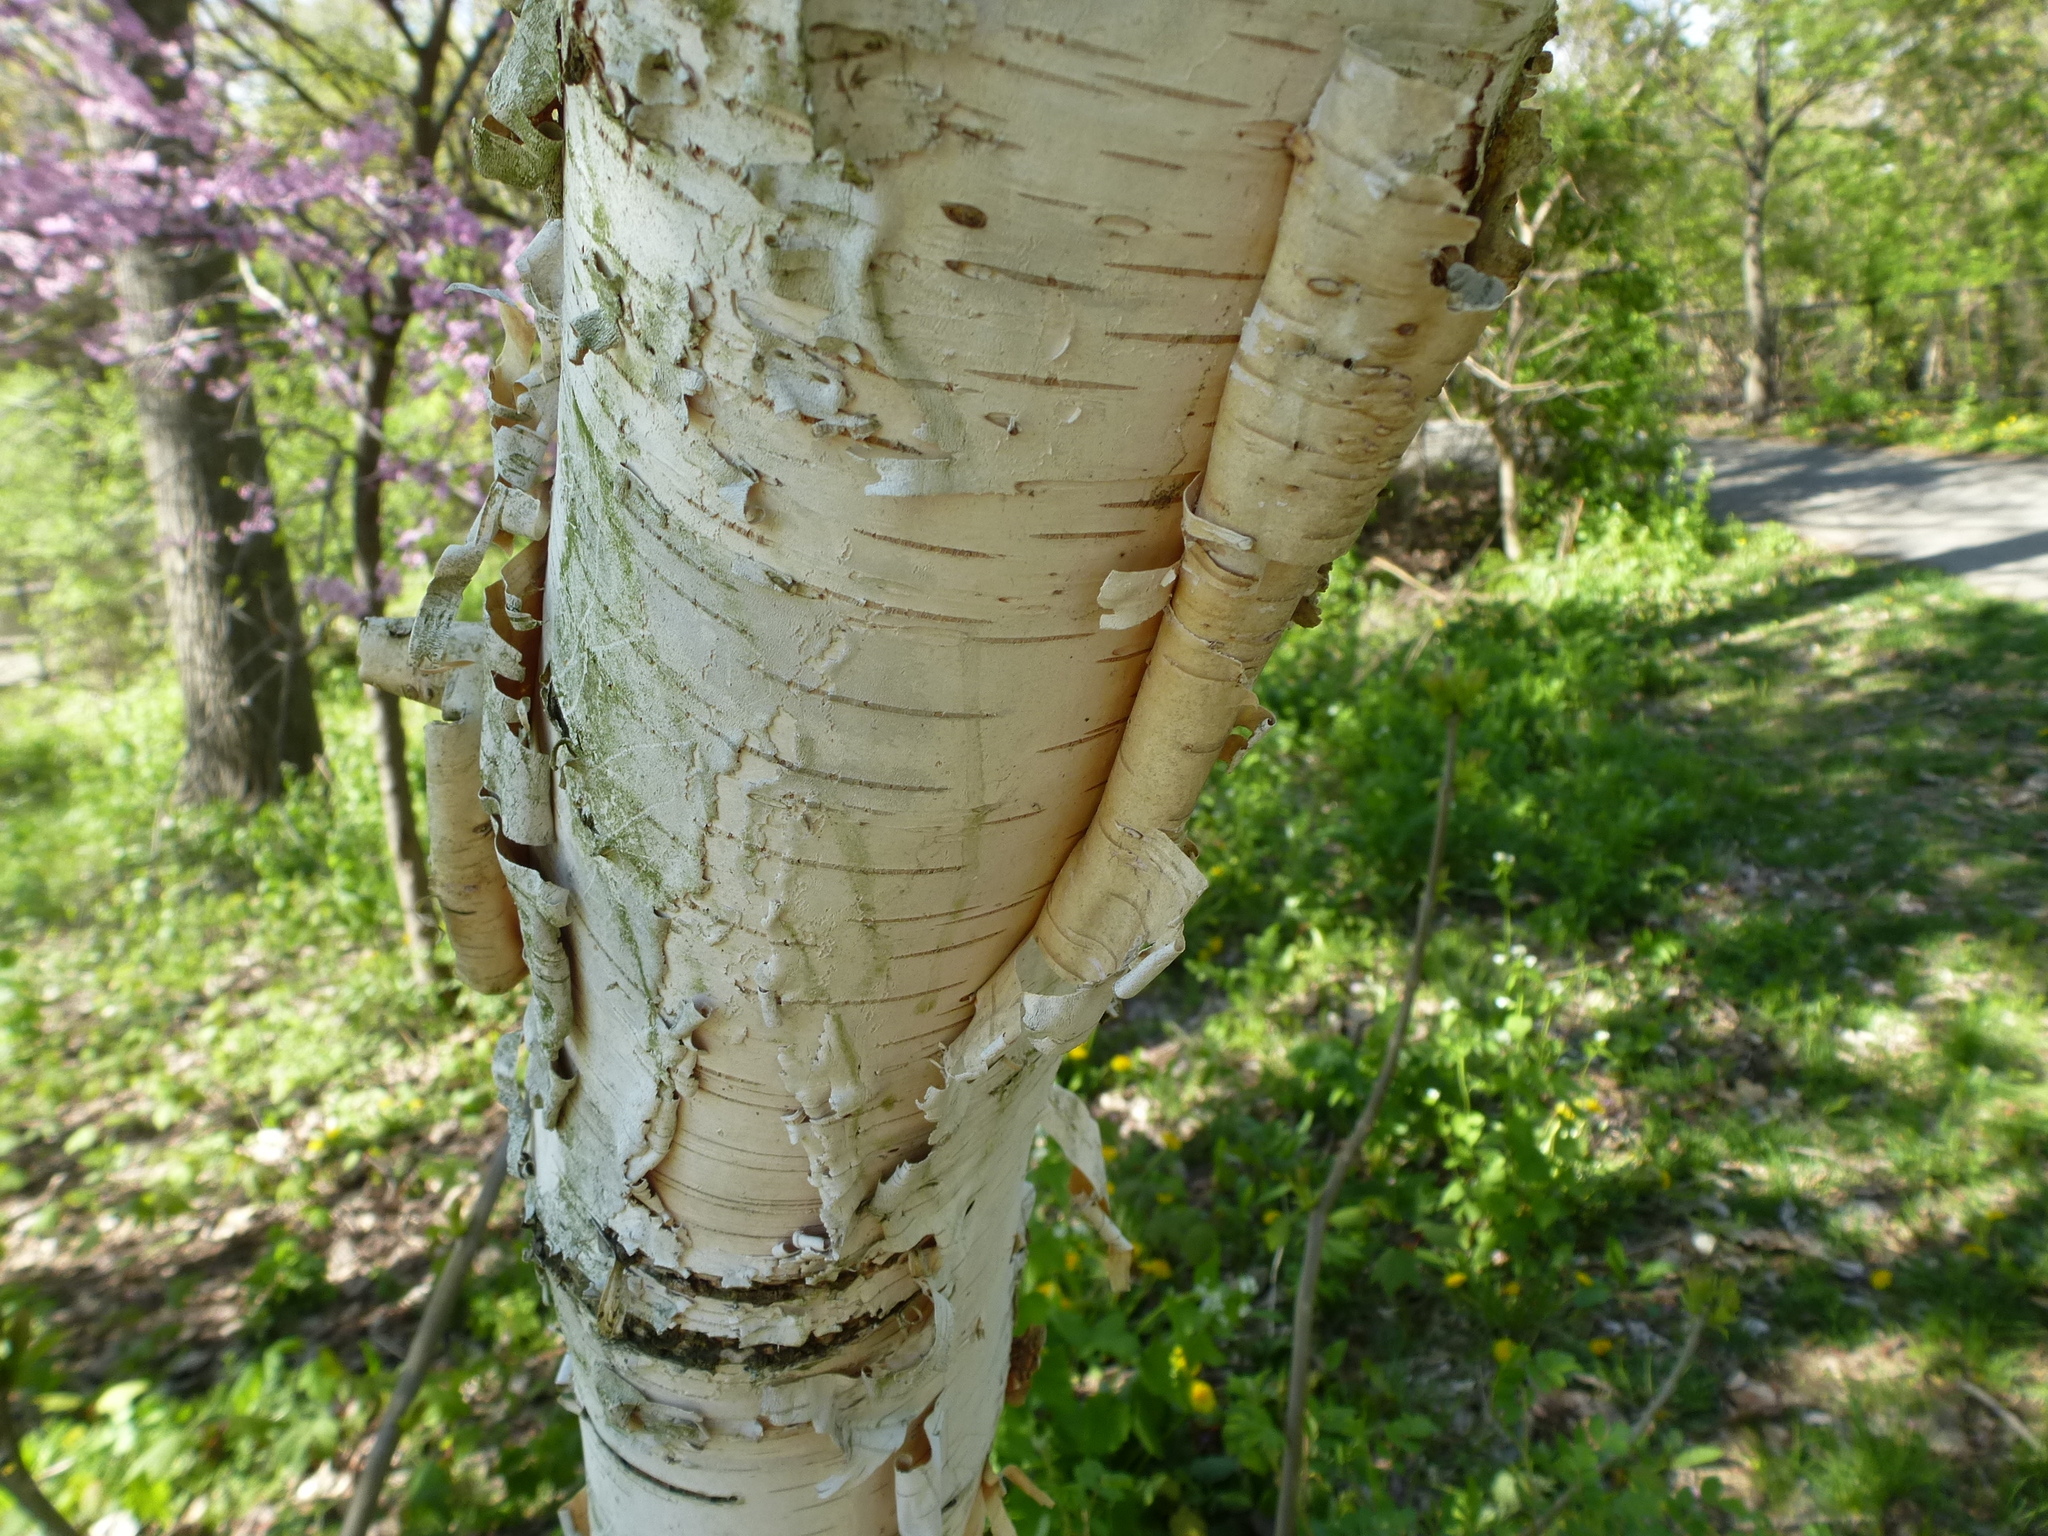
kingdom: Plantae
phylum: Tracheophyta
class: Magnoliopsida
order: Fagales
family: Betulaceae
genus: Betula
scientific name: Betula papyrifera
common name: Paper birch
